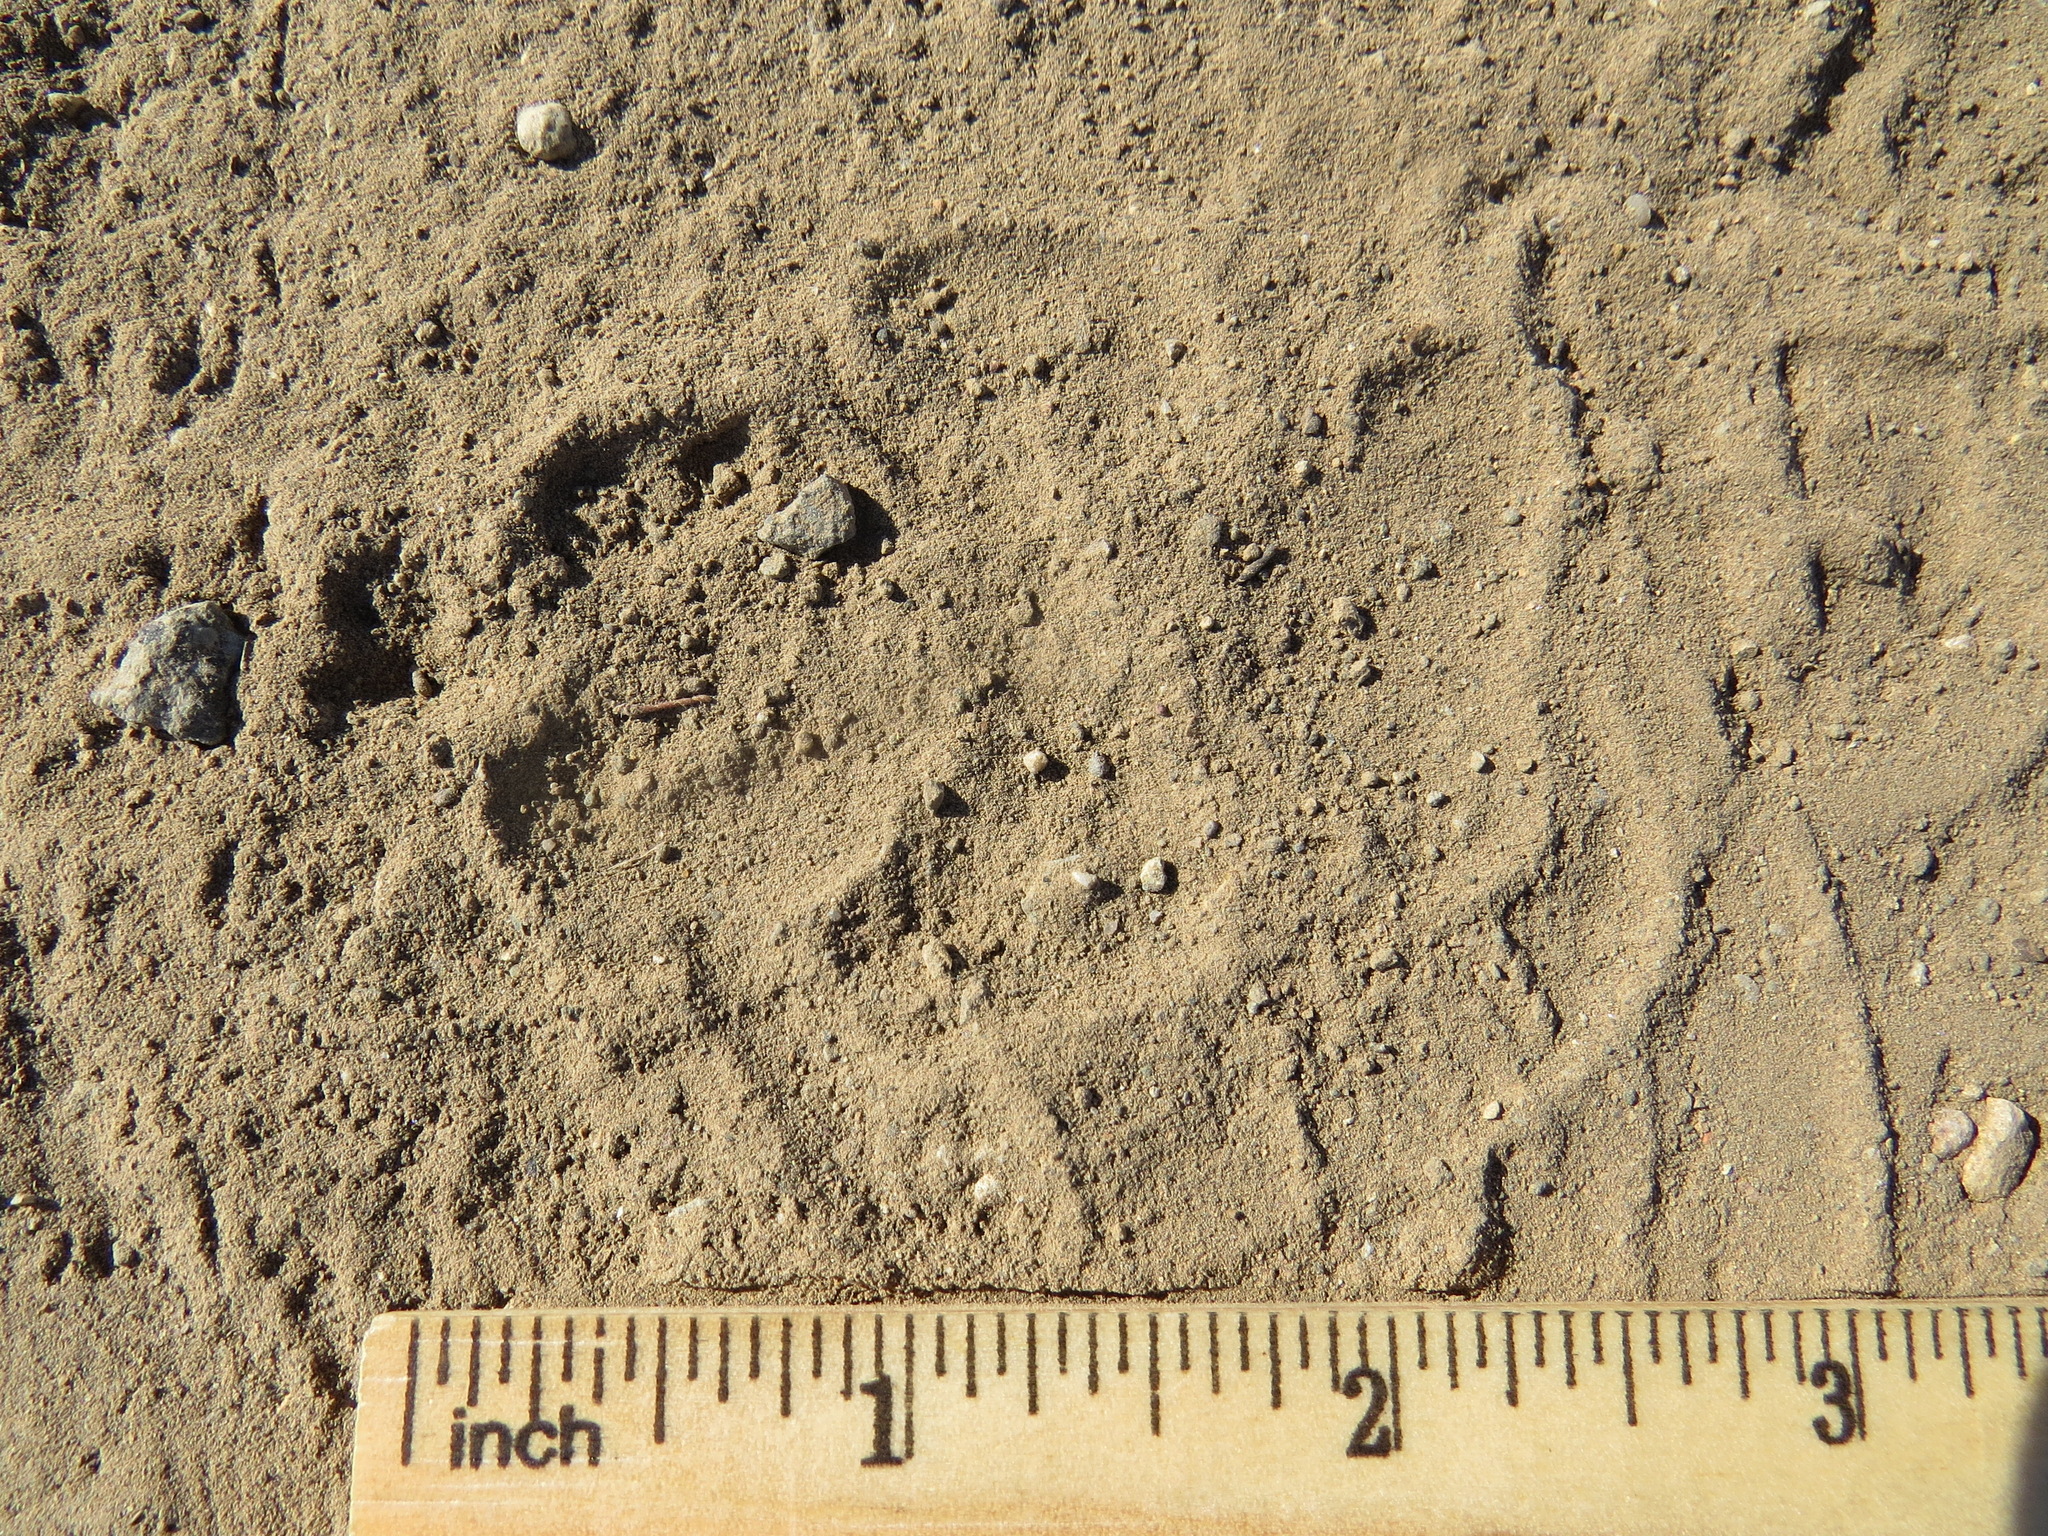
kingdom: Animalia
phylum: Chordata
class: Mammalia
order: Carnivora
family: Canidae
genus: Canis
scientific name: Canis latrans
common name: Coyote
